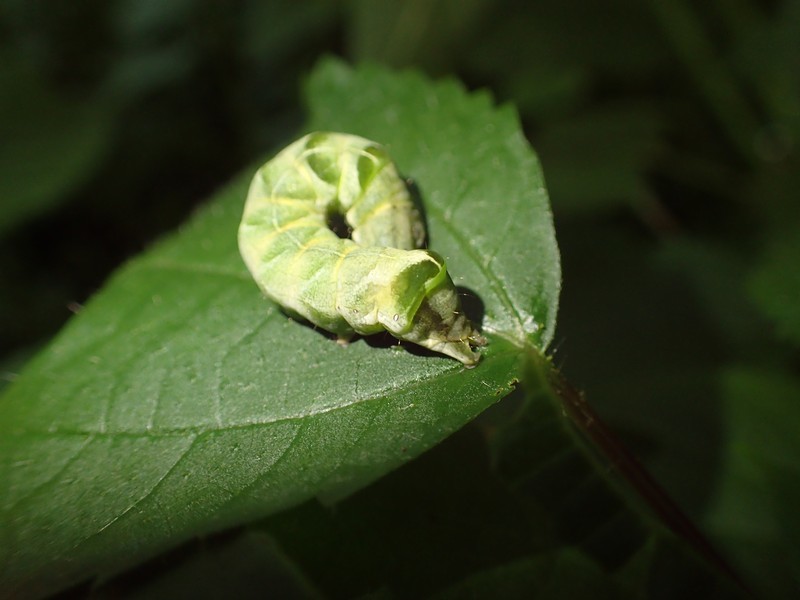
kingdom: Animalia
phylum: Arthropoda
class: Insecta
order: Lepidoptera
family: Noctuidae
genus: Melanchra
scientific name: Melanchra adjuncta
